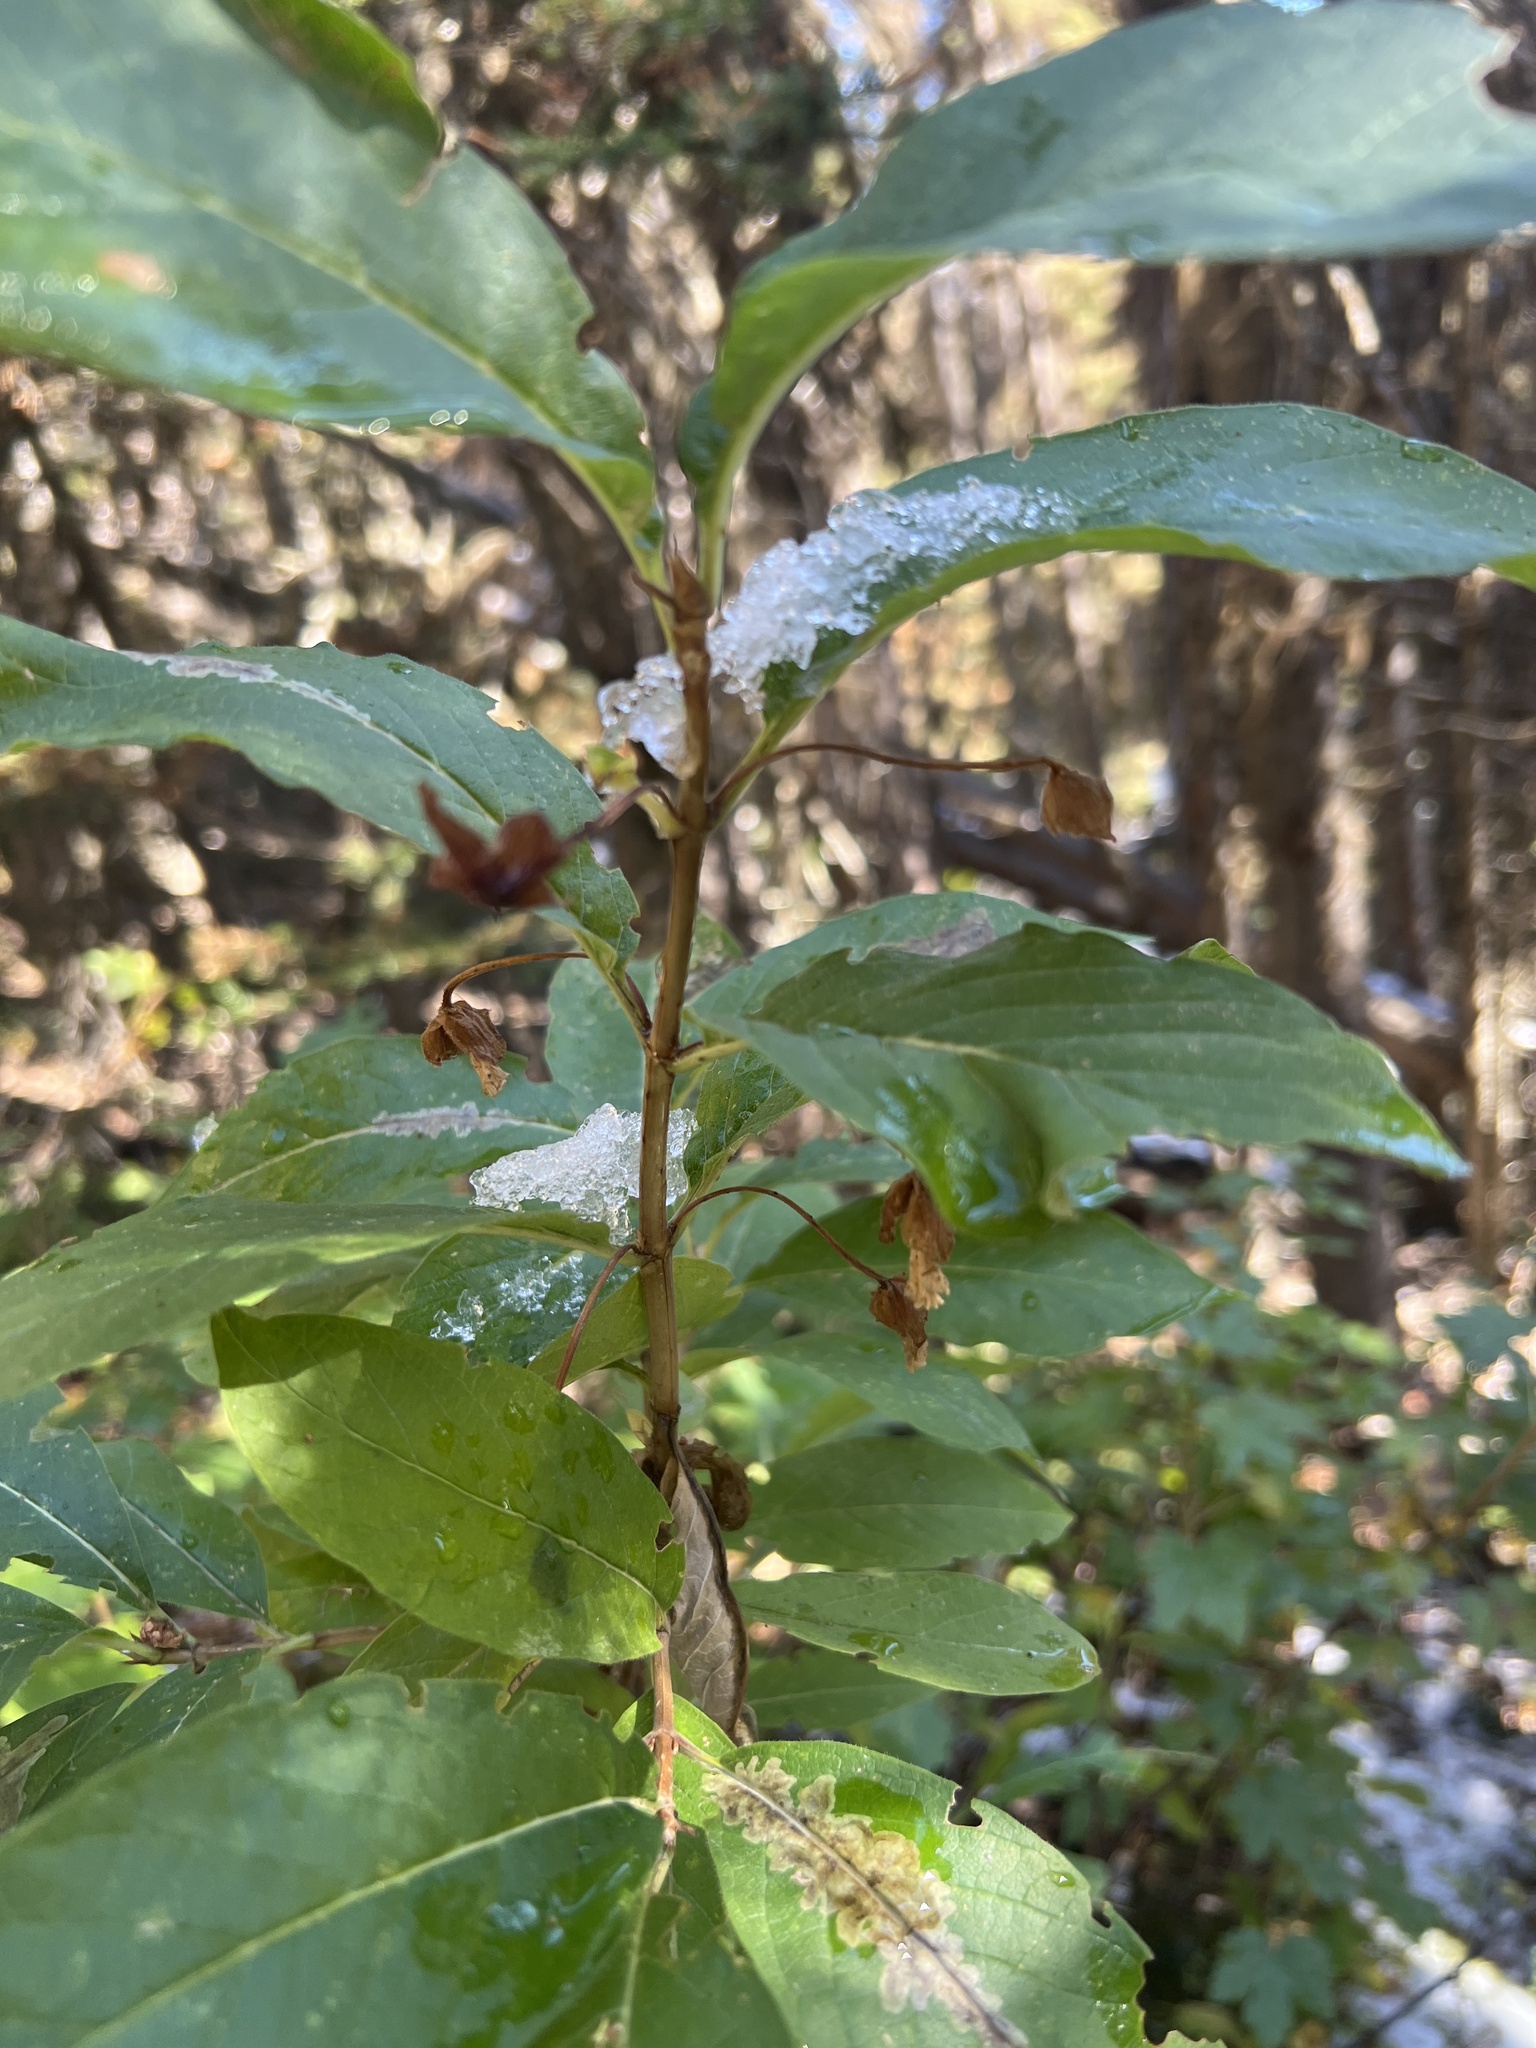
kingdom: Plantae
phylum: Tracheophyta
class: Magnoliopsida
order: Dipsacales
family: Caprifoliaceae
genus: Lonicera
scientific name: Lonicera involucrata
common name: Californian honeysuckle
